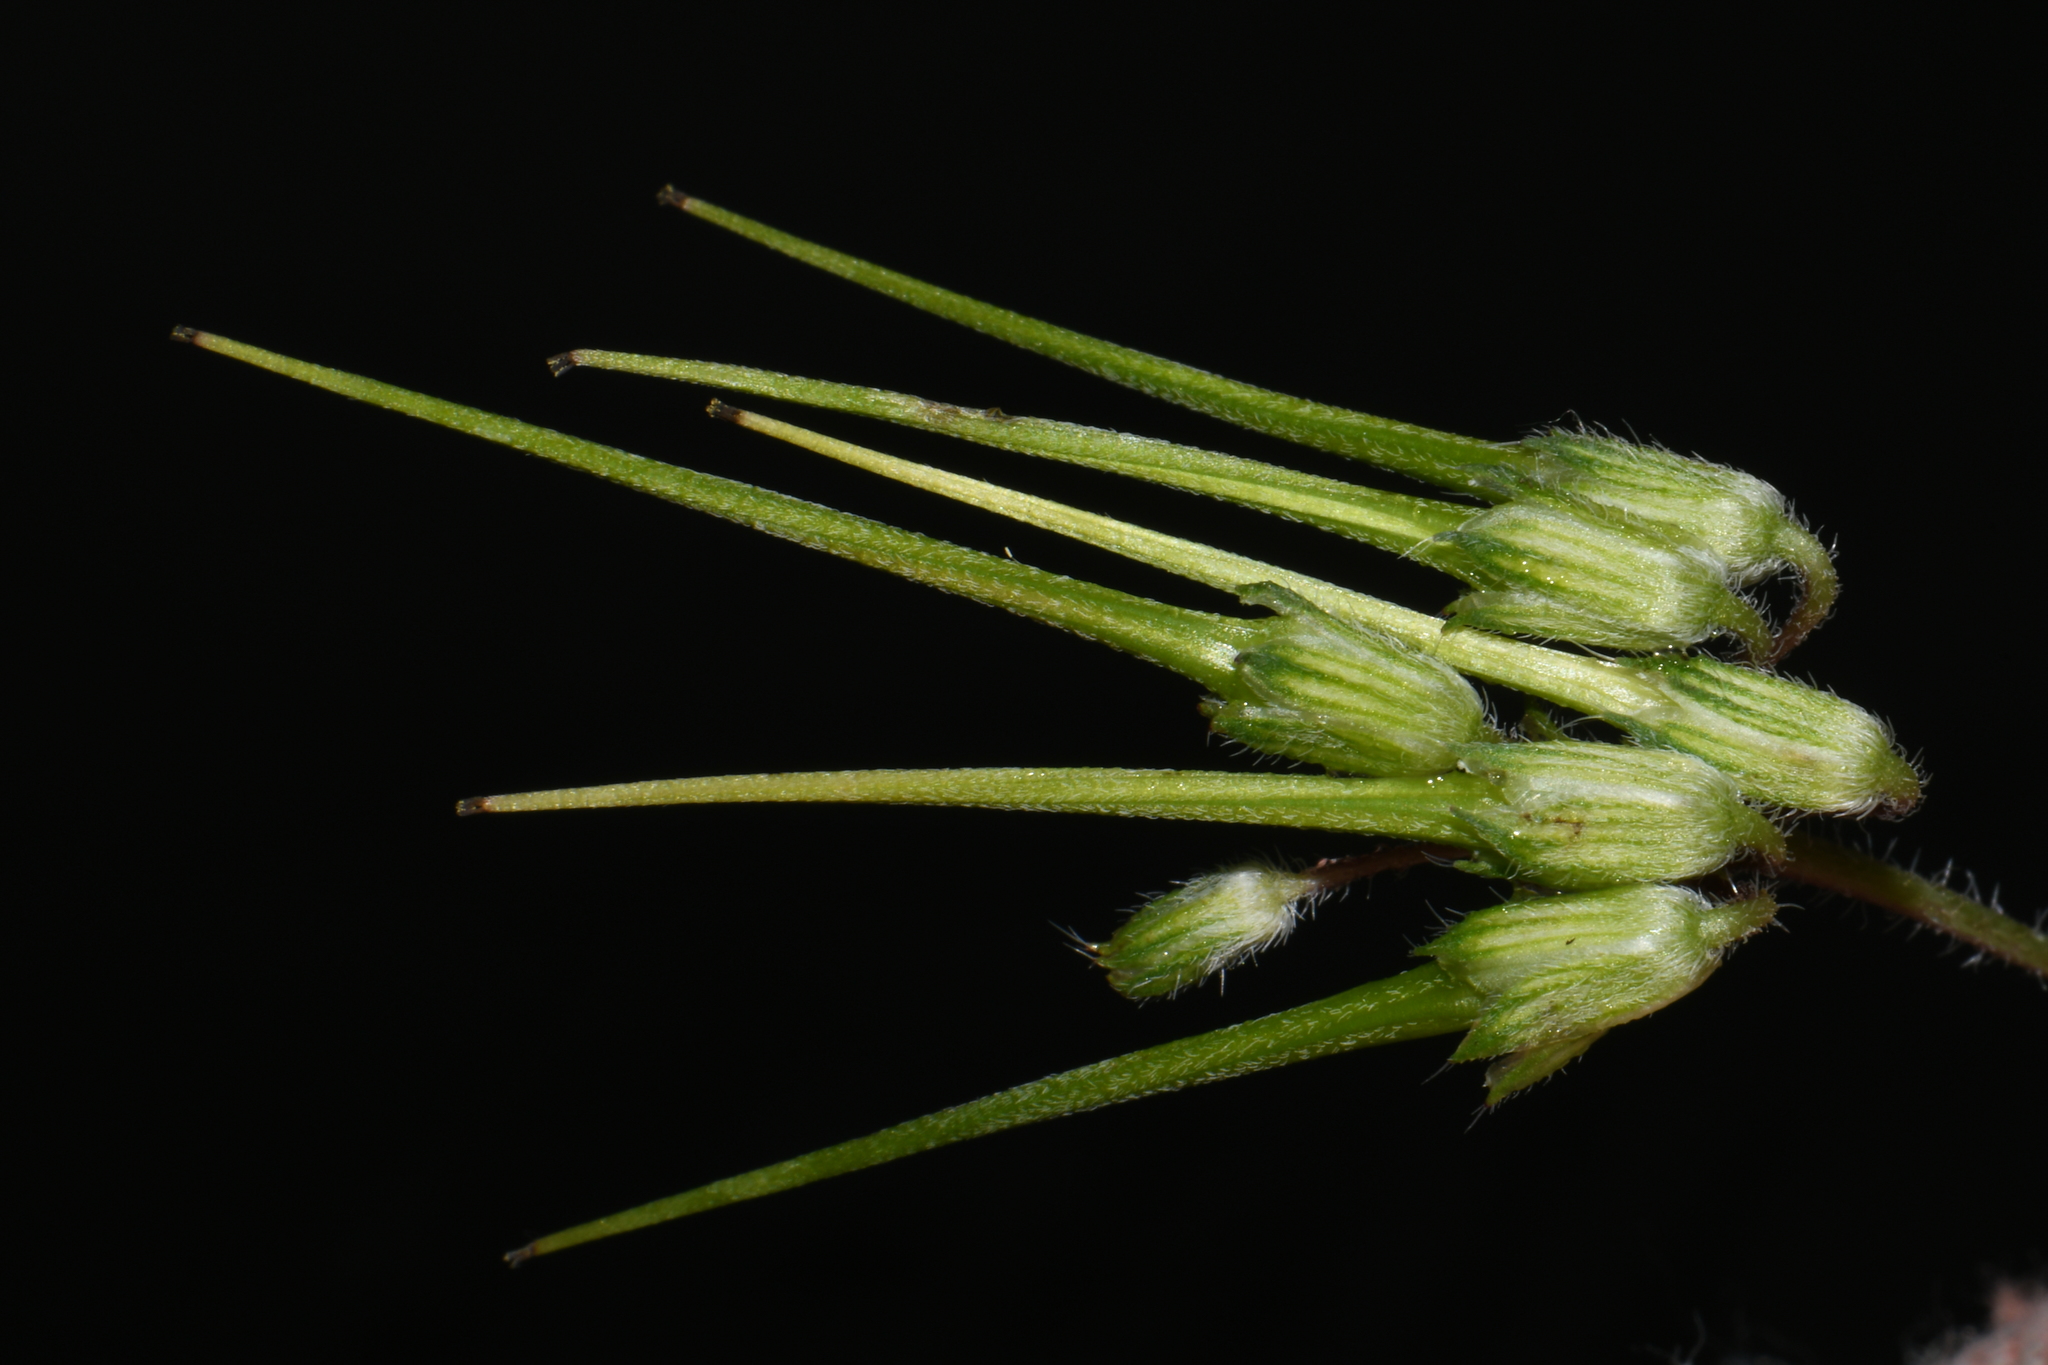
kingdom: Plantae
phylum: Tracheophyta
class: Magnoliopsida
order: Geraniales
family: Geraniaceae
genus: Erodium
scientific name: Erodium cicutarium
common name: Common stork's-bill
